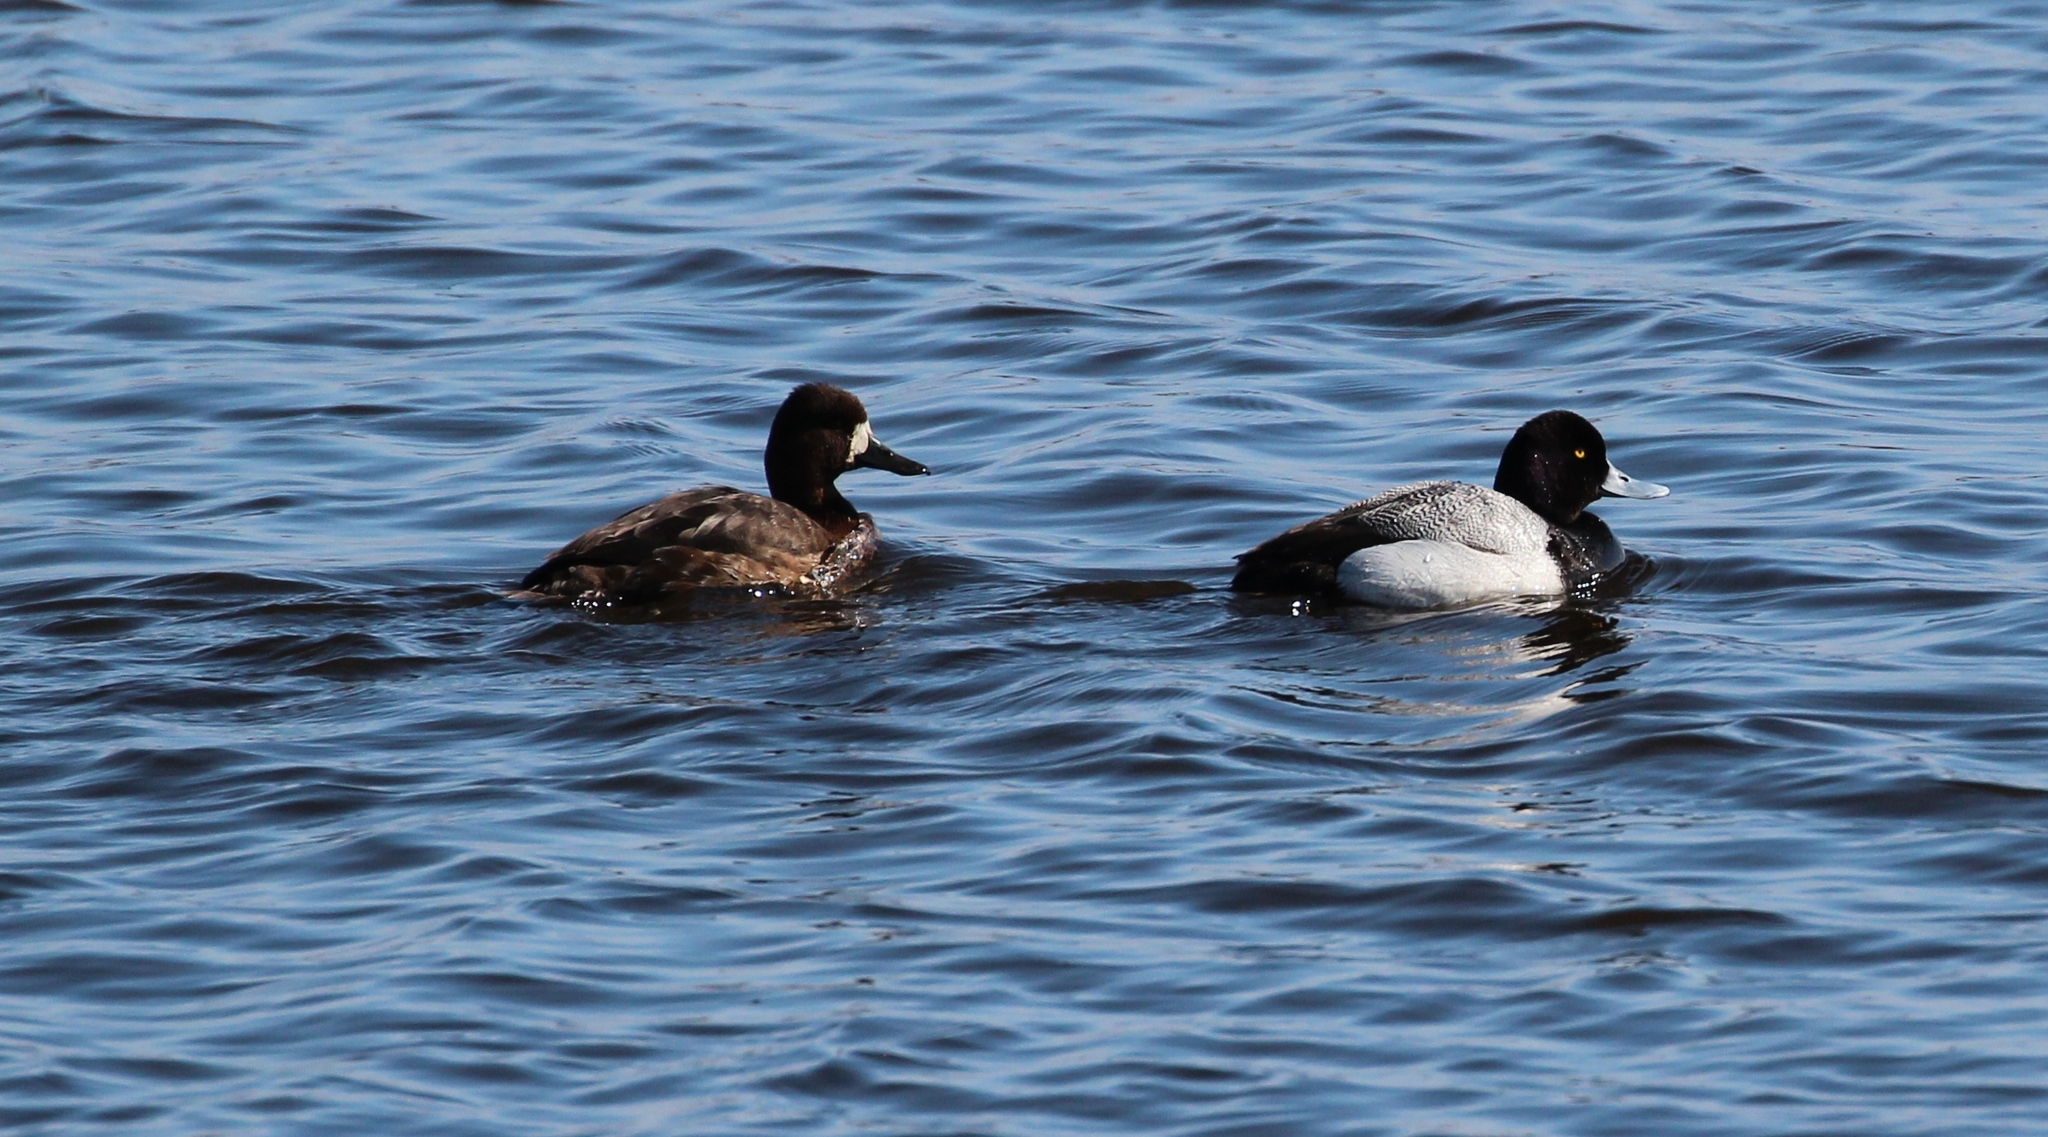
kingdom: Animalia
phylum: Chordata
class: Aves
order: Anseriformes
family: Anatidae
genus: Aythya
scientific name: Aythya affinis
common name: Lesser scaup
